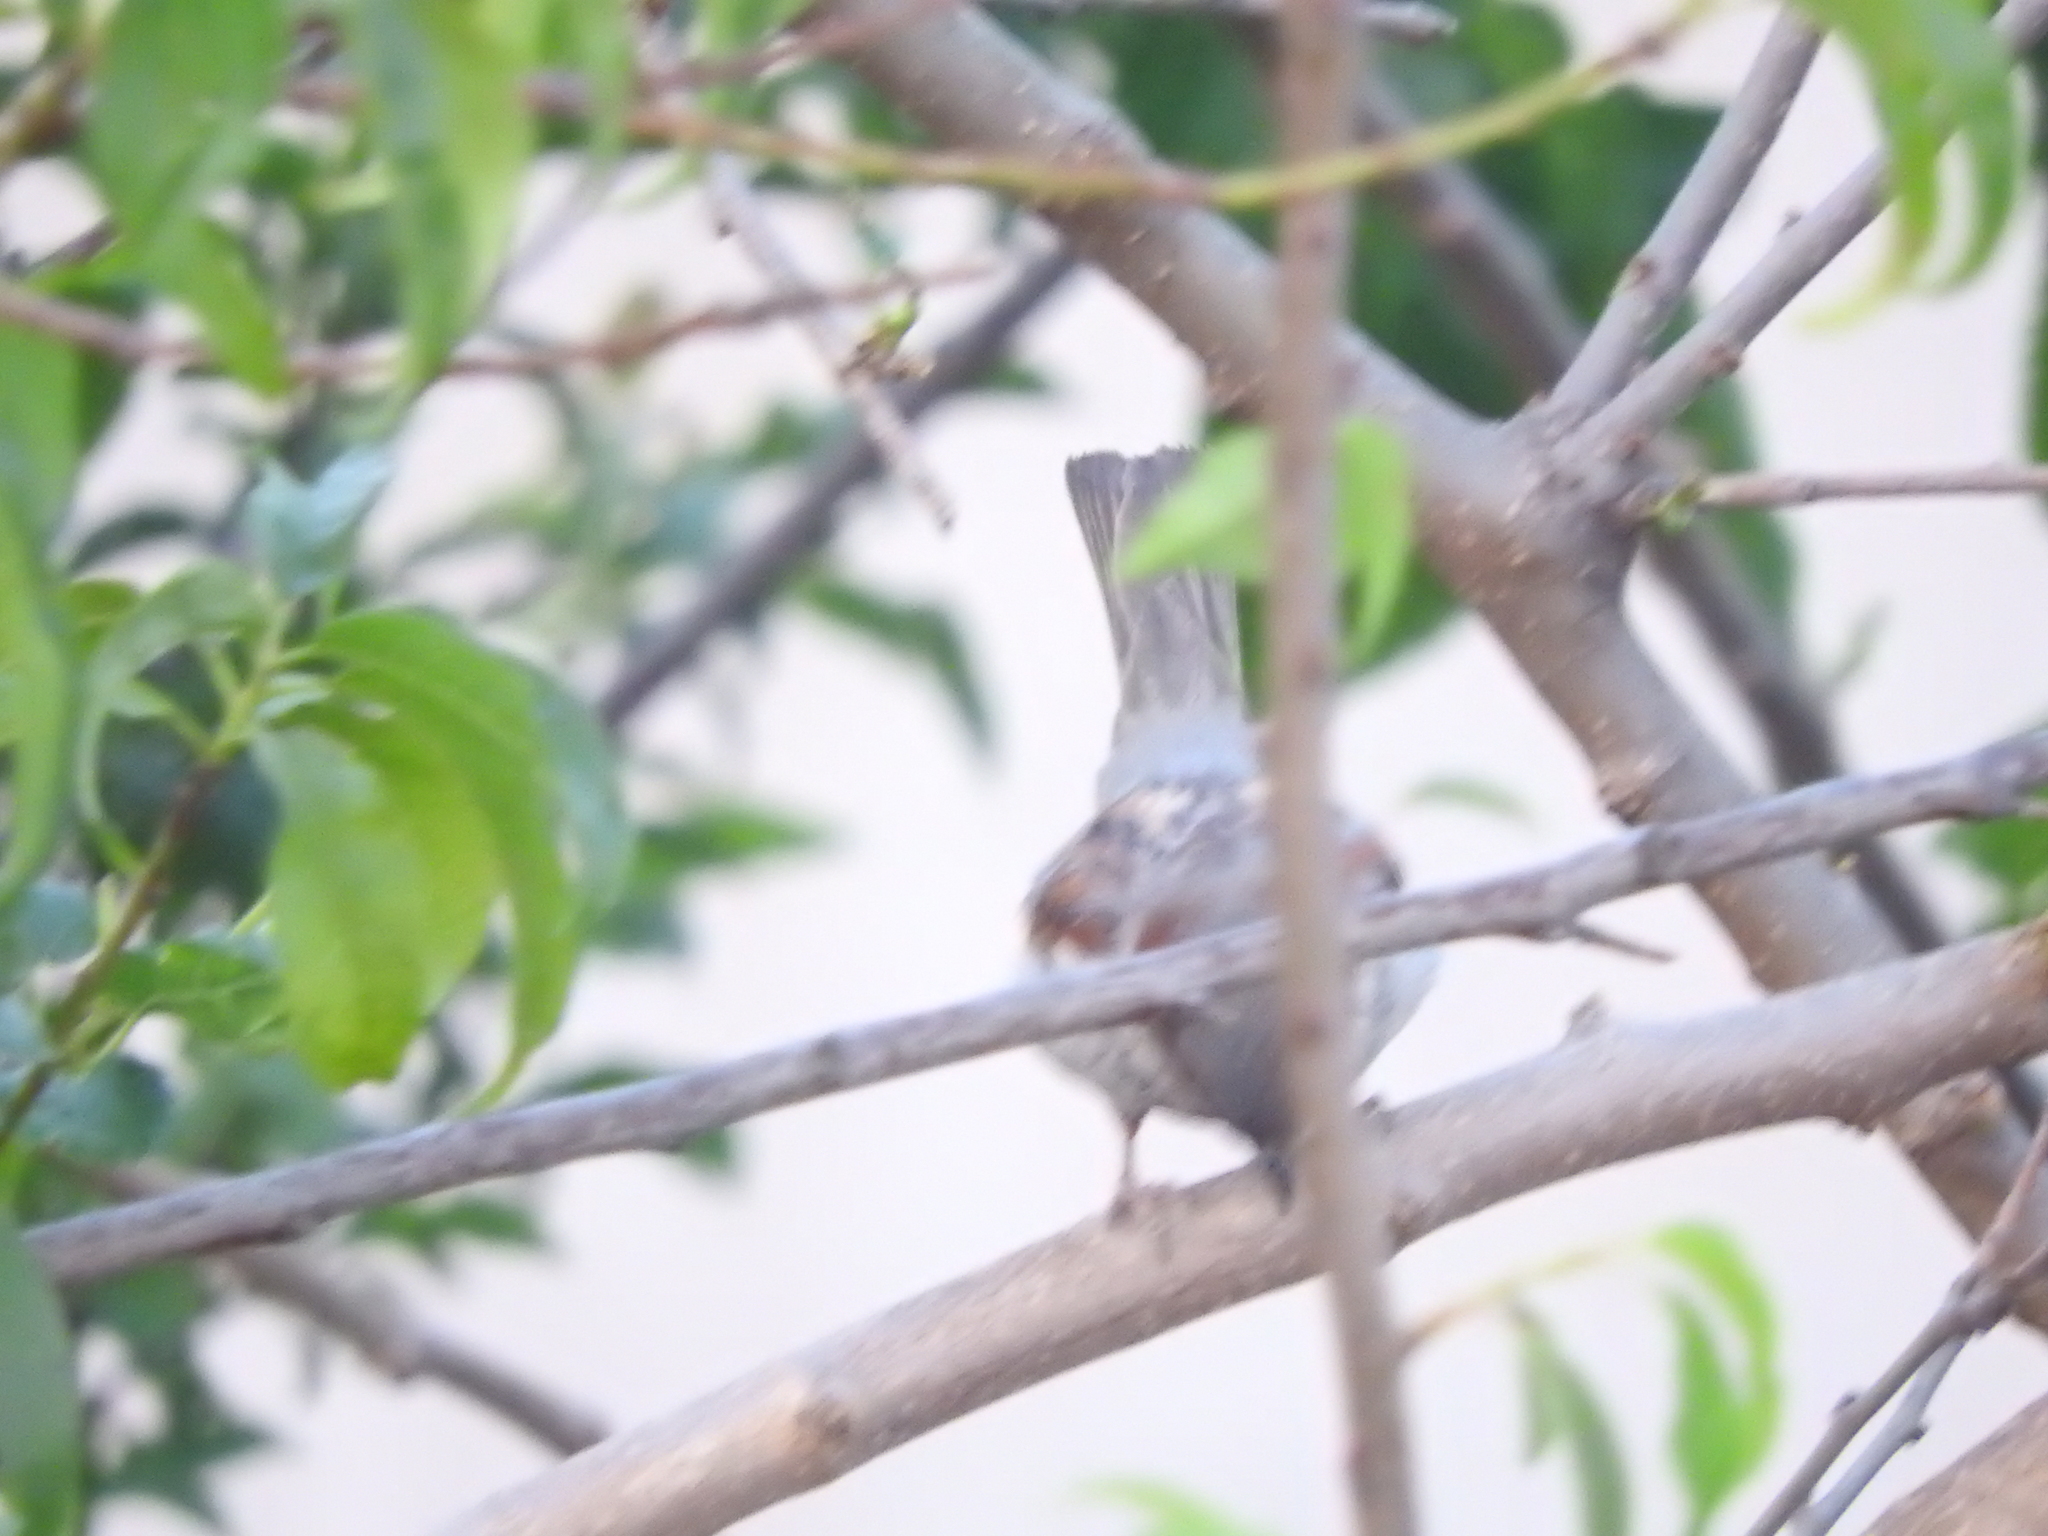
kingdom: Animalia
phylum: Chordata
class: Aves
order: Passeriformes
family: Passeridae
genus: Passer
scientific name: Passer domesticus
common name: House sparrow
